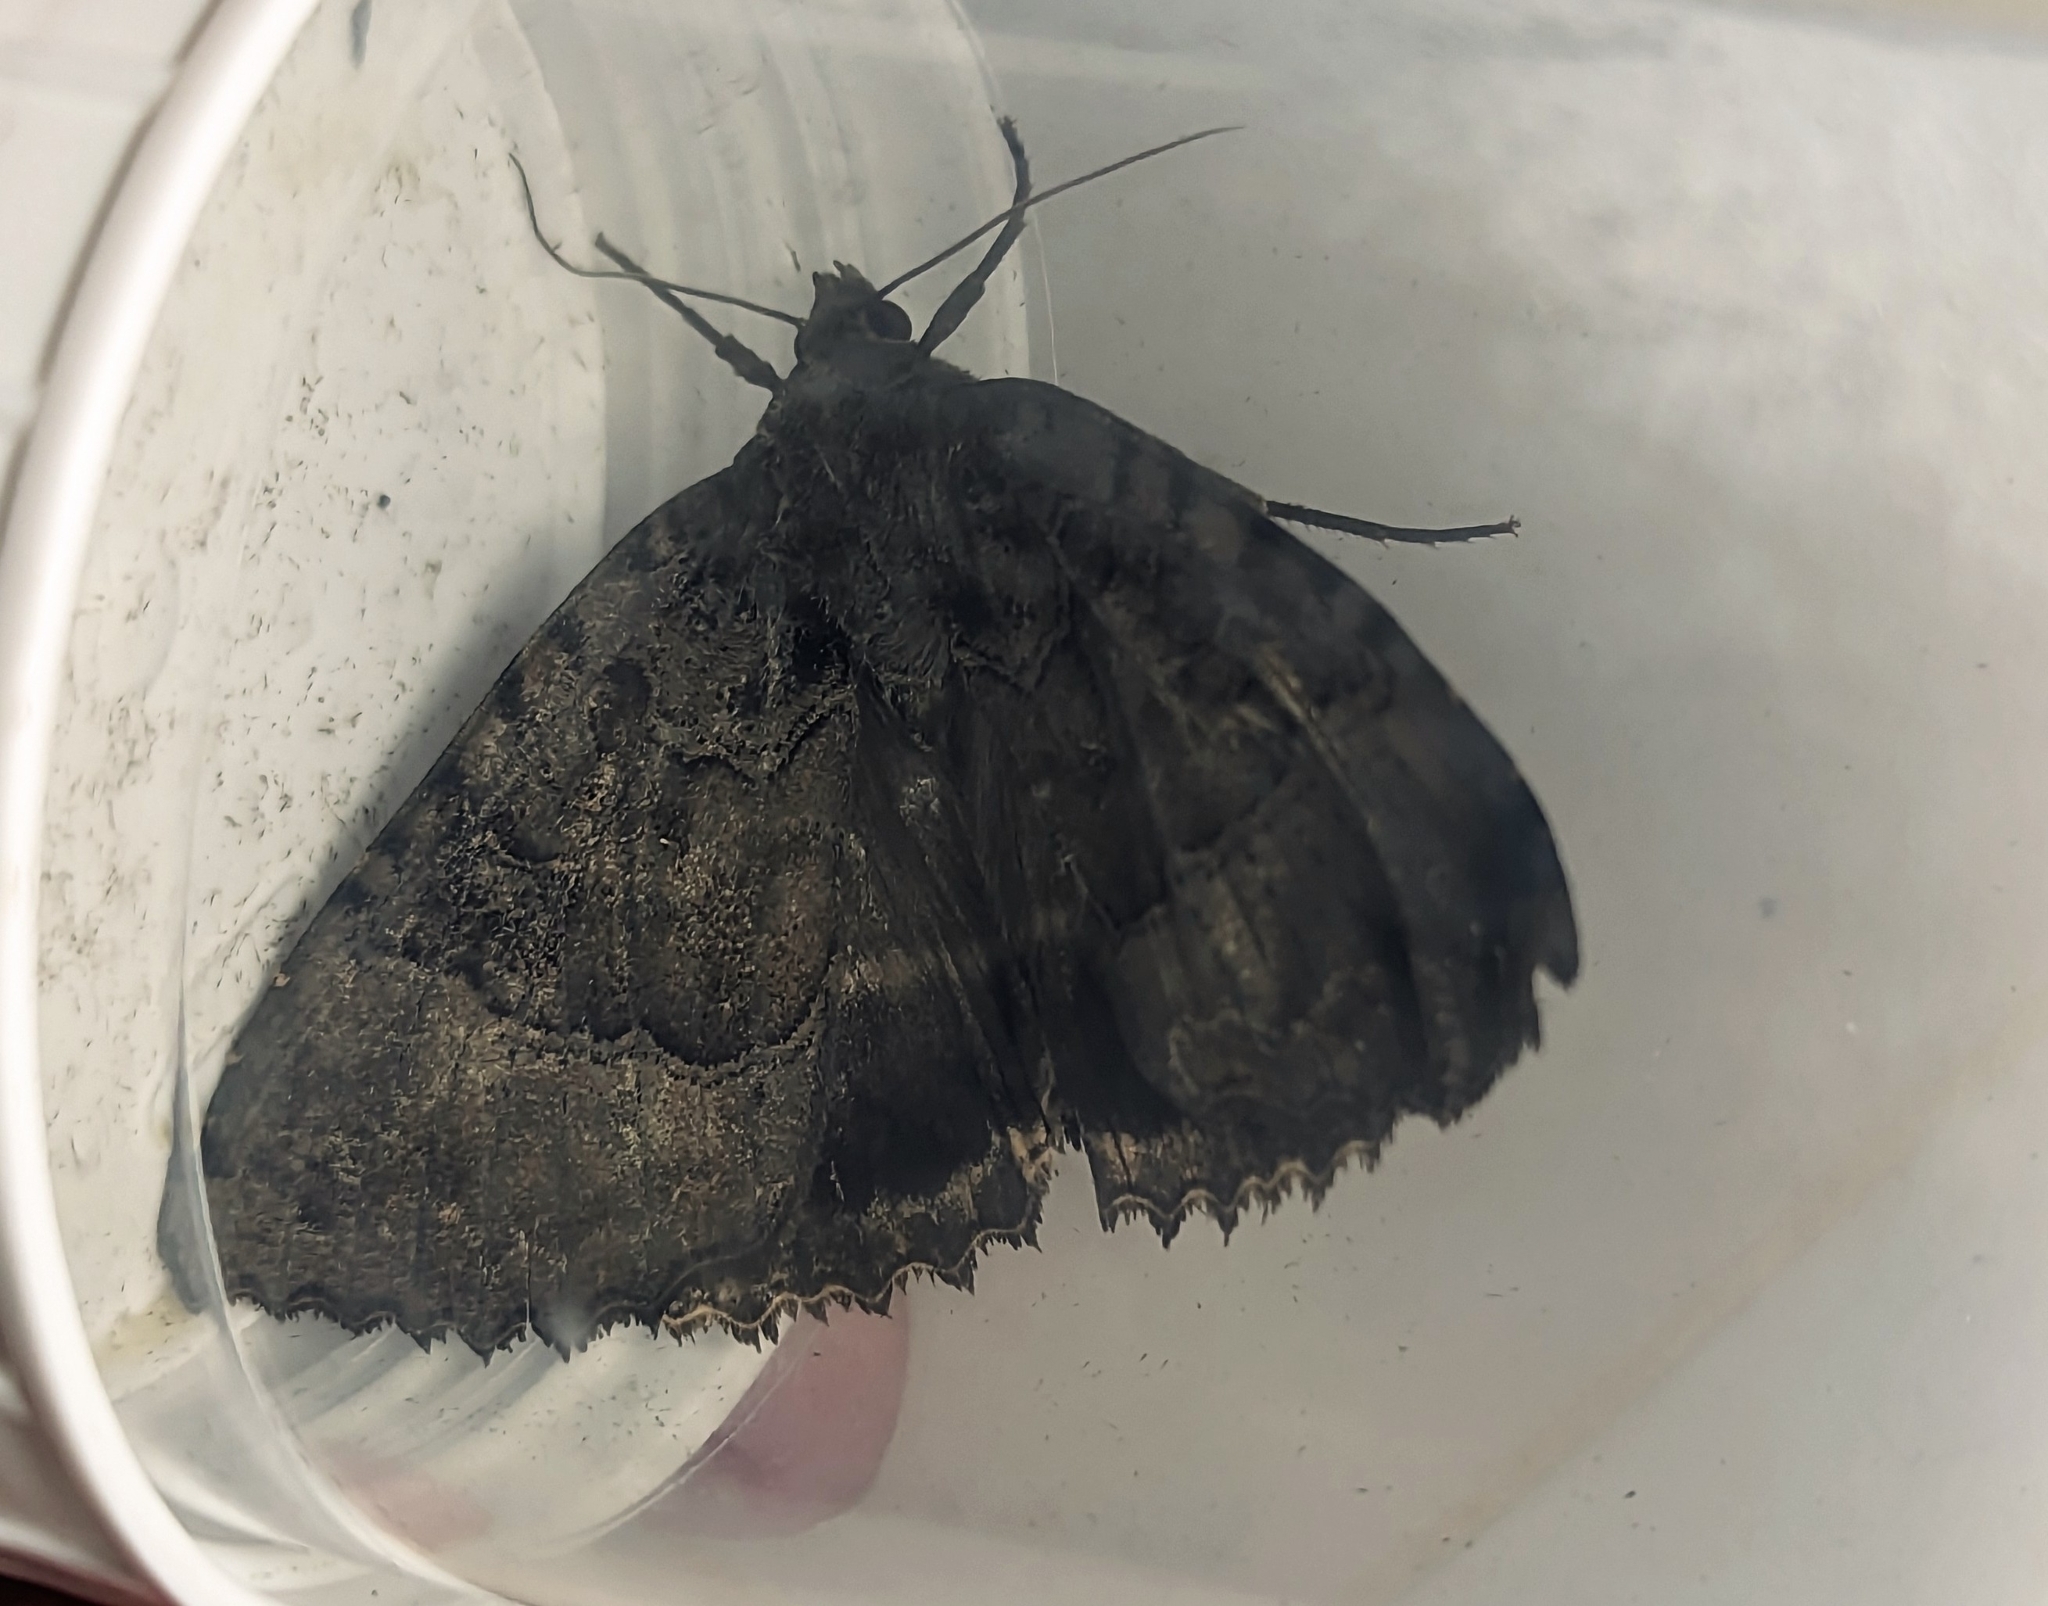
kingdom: Animalia
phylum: Arthropoda
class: Insecta
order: Lepidoptera
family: Noctuidae
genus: Mormo
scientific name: Mormo maura
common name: Old lady
